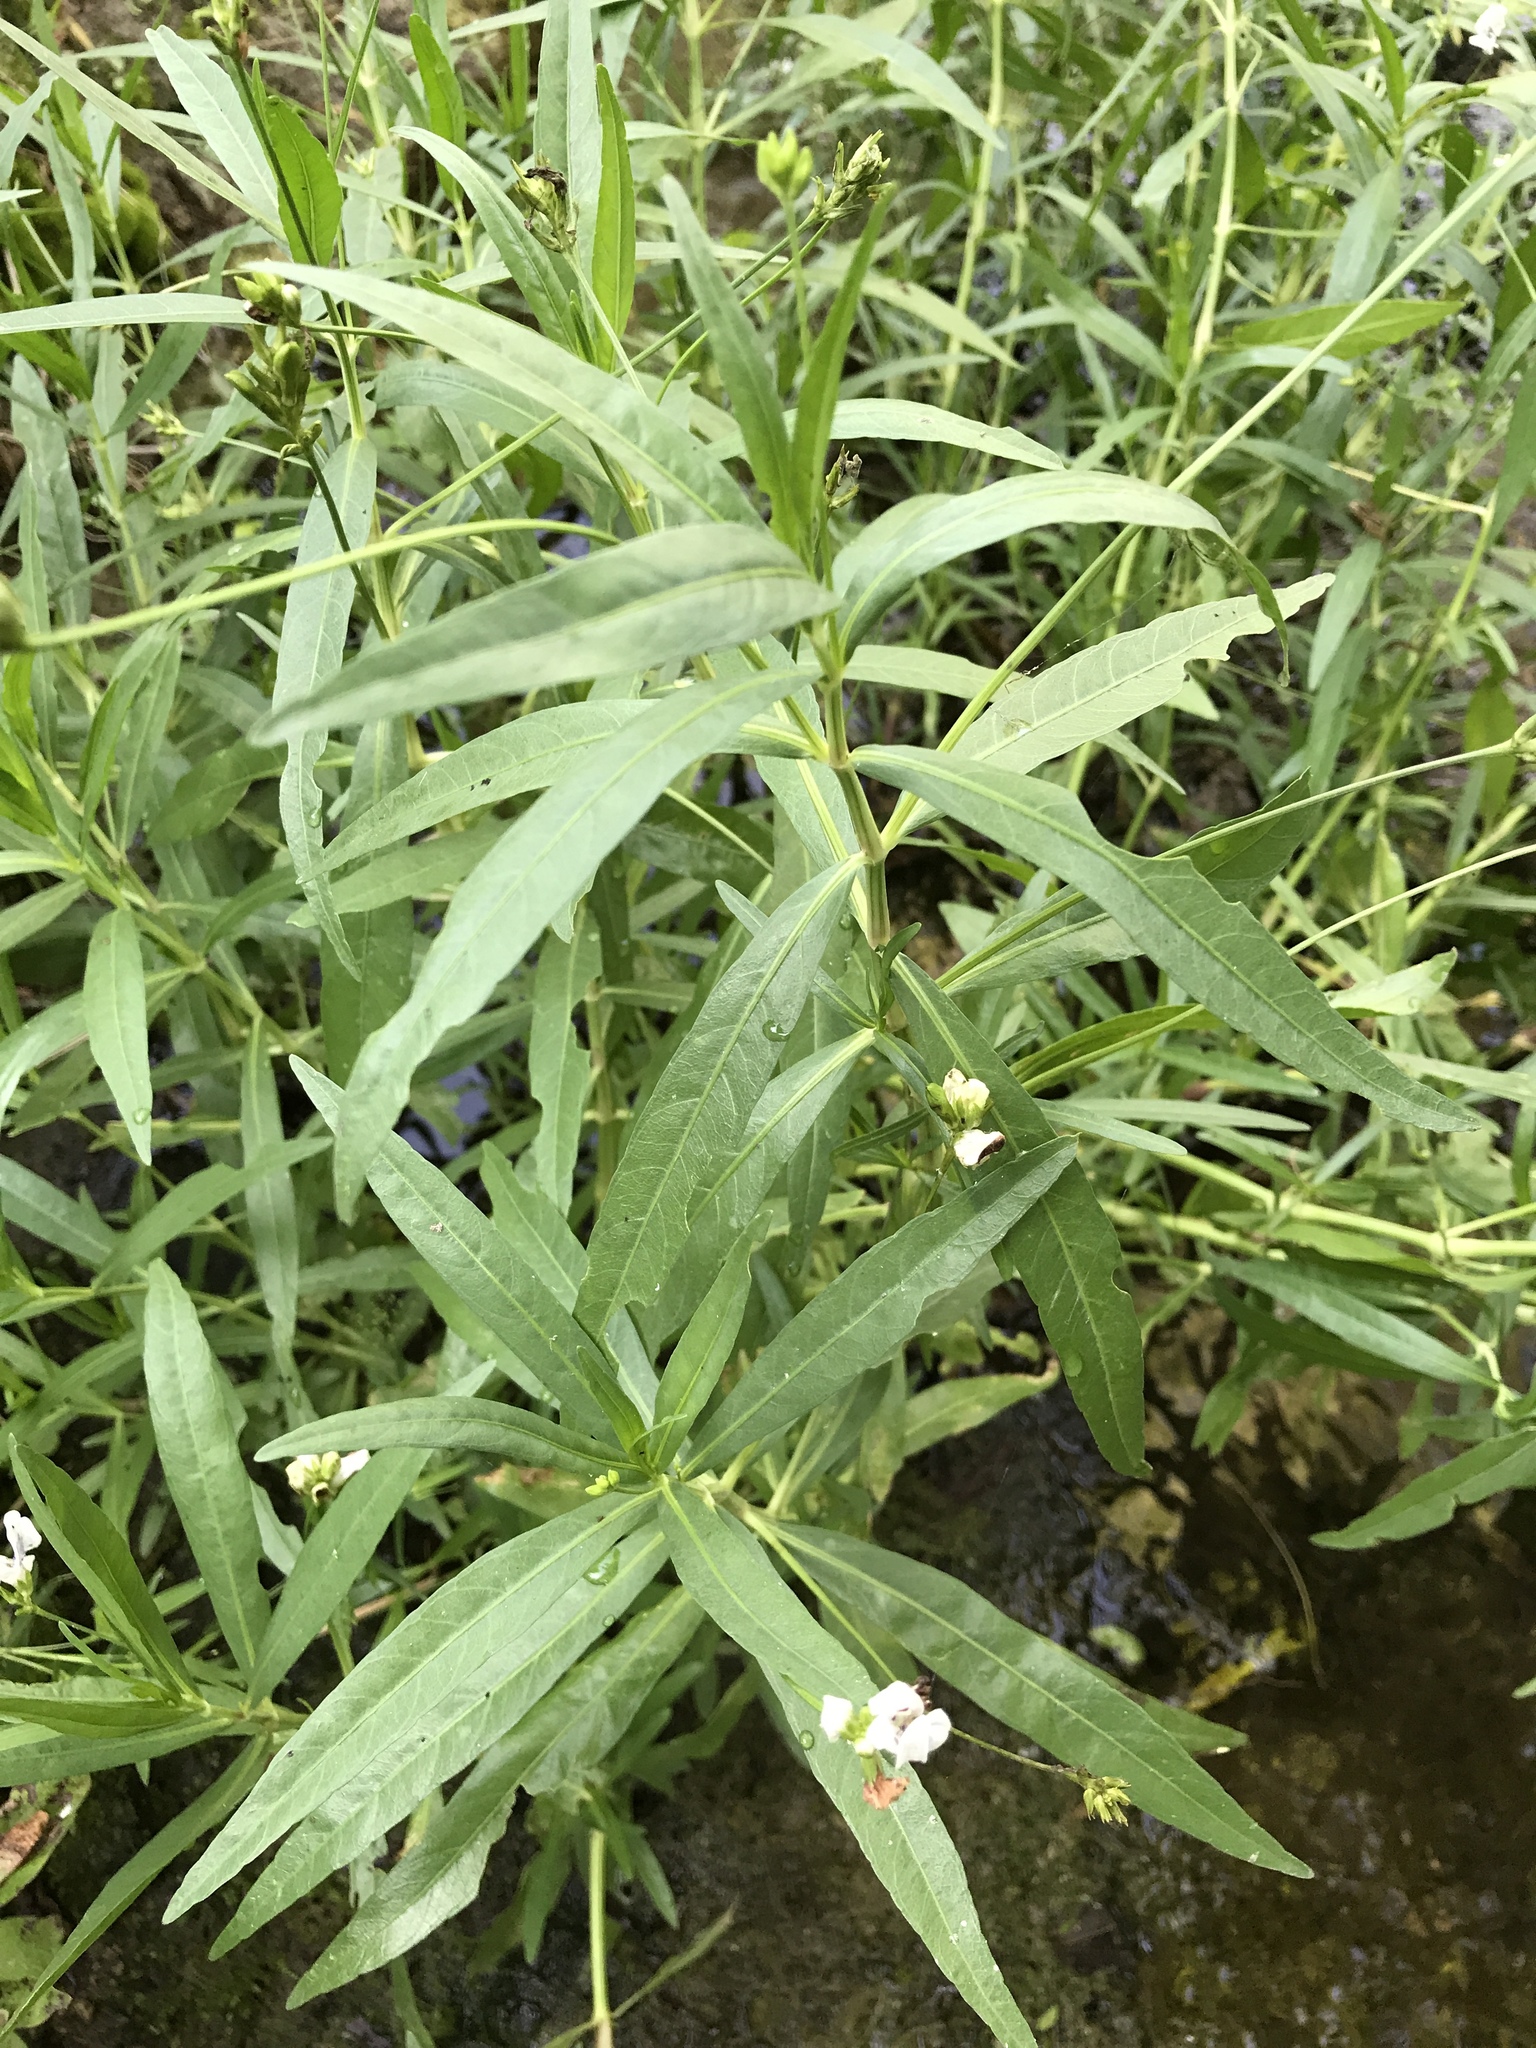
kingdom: Plantae
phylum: Tracheophyta
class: Magnoliopsida
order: Lamiales
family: Acanthaceae
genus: Dianthera
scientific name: Dianthera americana
